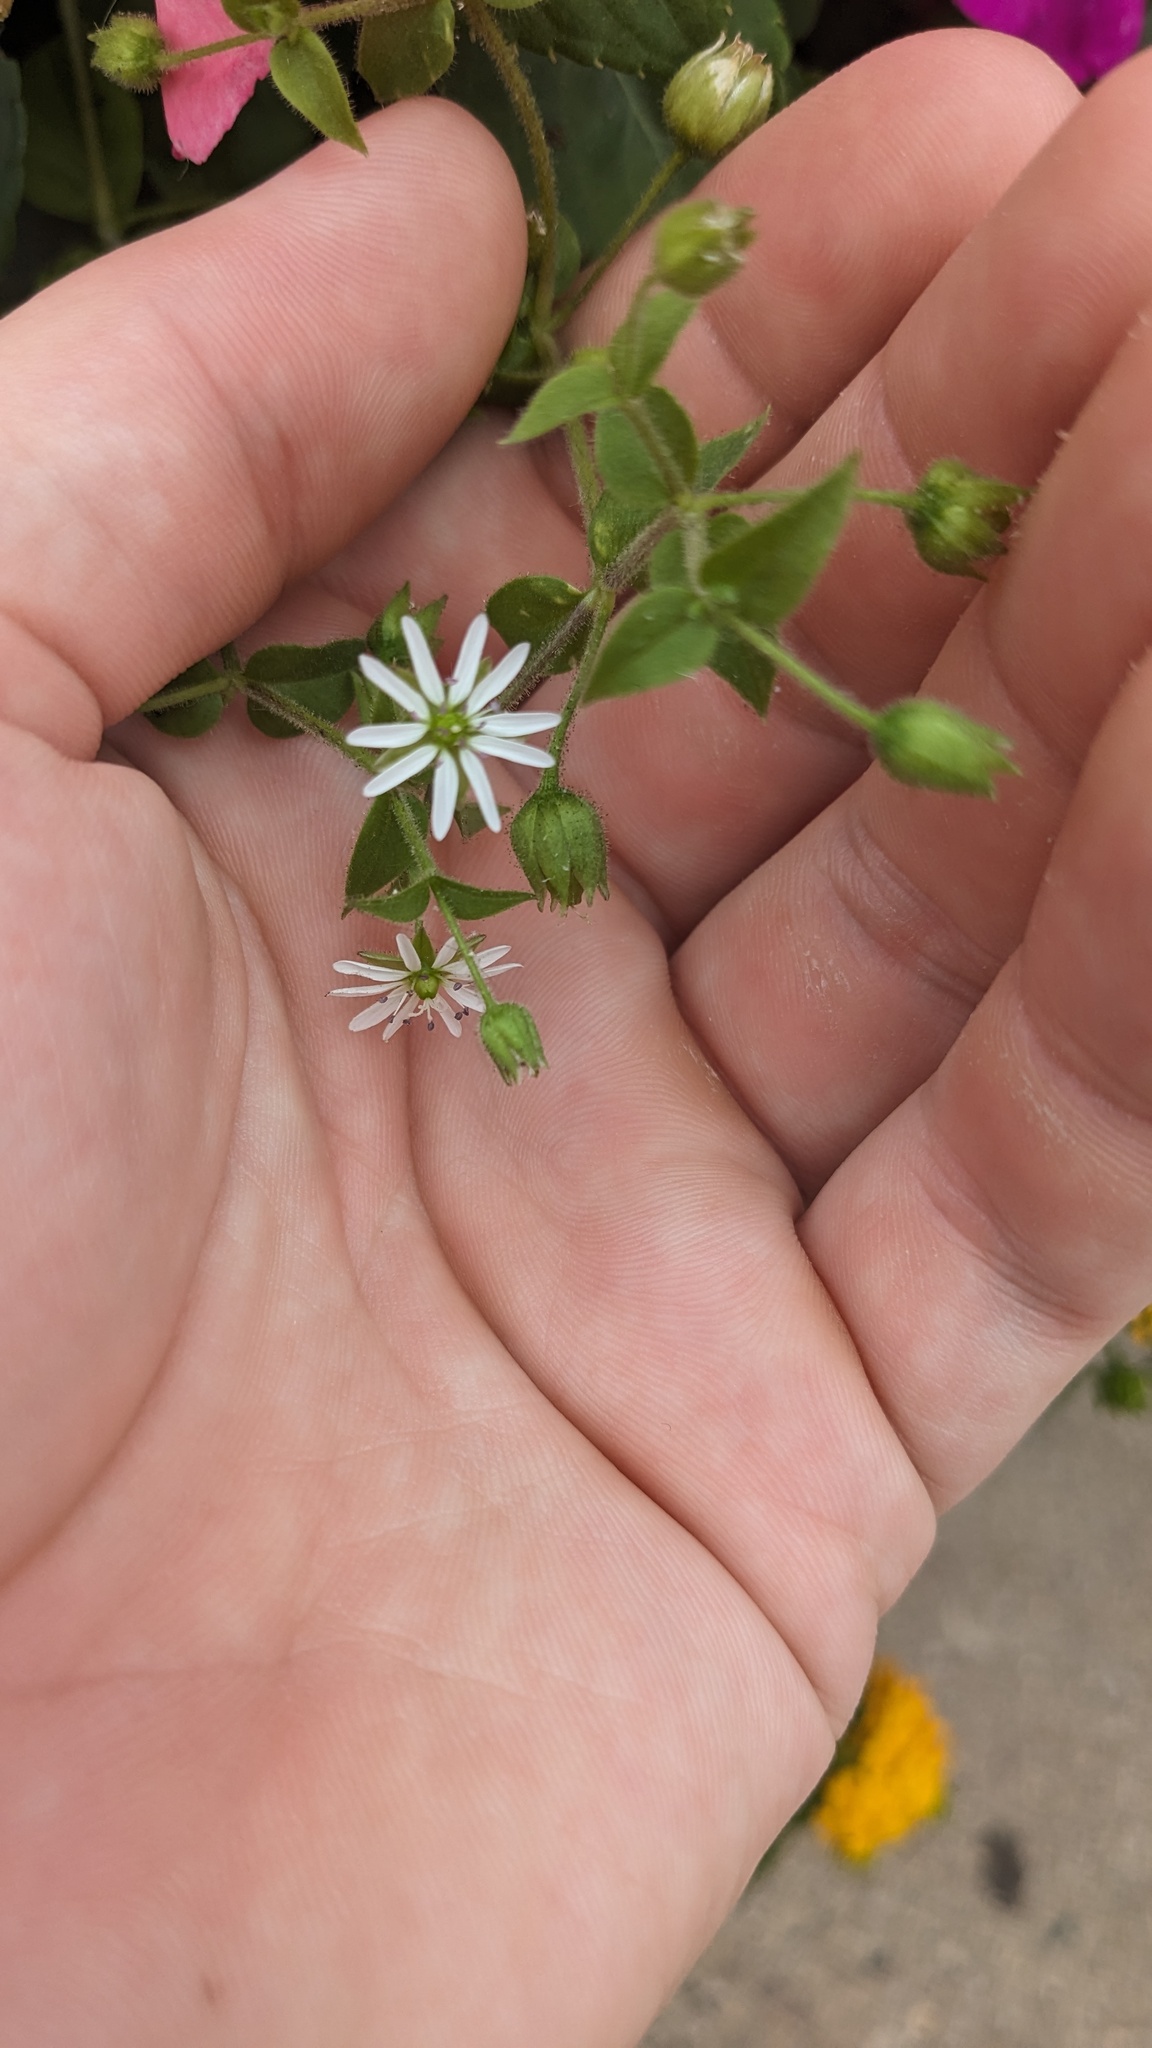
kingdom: Plantae
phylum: Tracheophyta
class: Magnoliopsida
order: Caryophyllales
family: Caryophyllaceae
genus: Stellaria
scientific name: Stellaria aquatica
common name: Water chickweed
